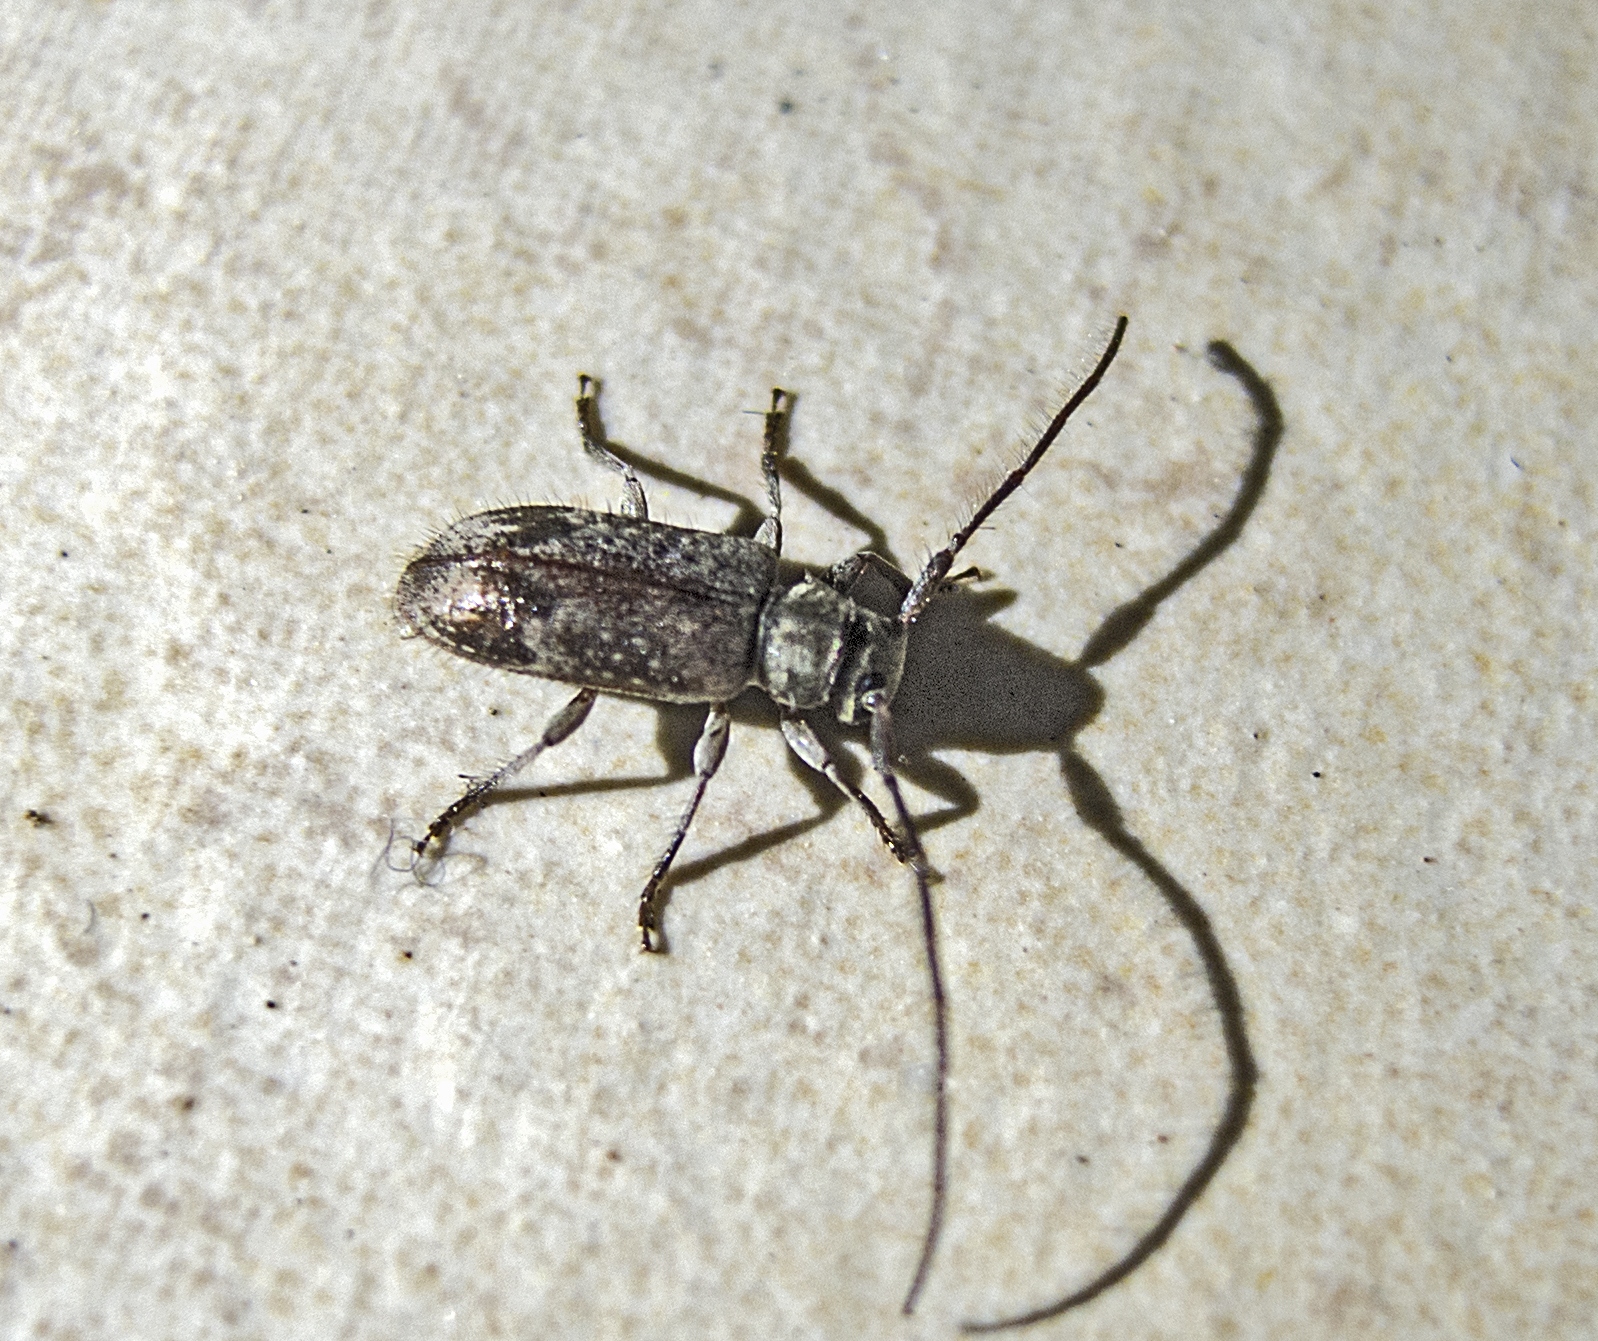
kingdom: Animalia
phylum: Arthropoda
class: Insecta
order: Coleoptera
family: Cerambycidae
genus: Exocentrus
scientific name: Exocentrus adspersus
